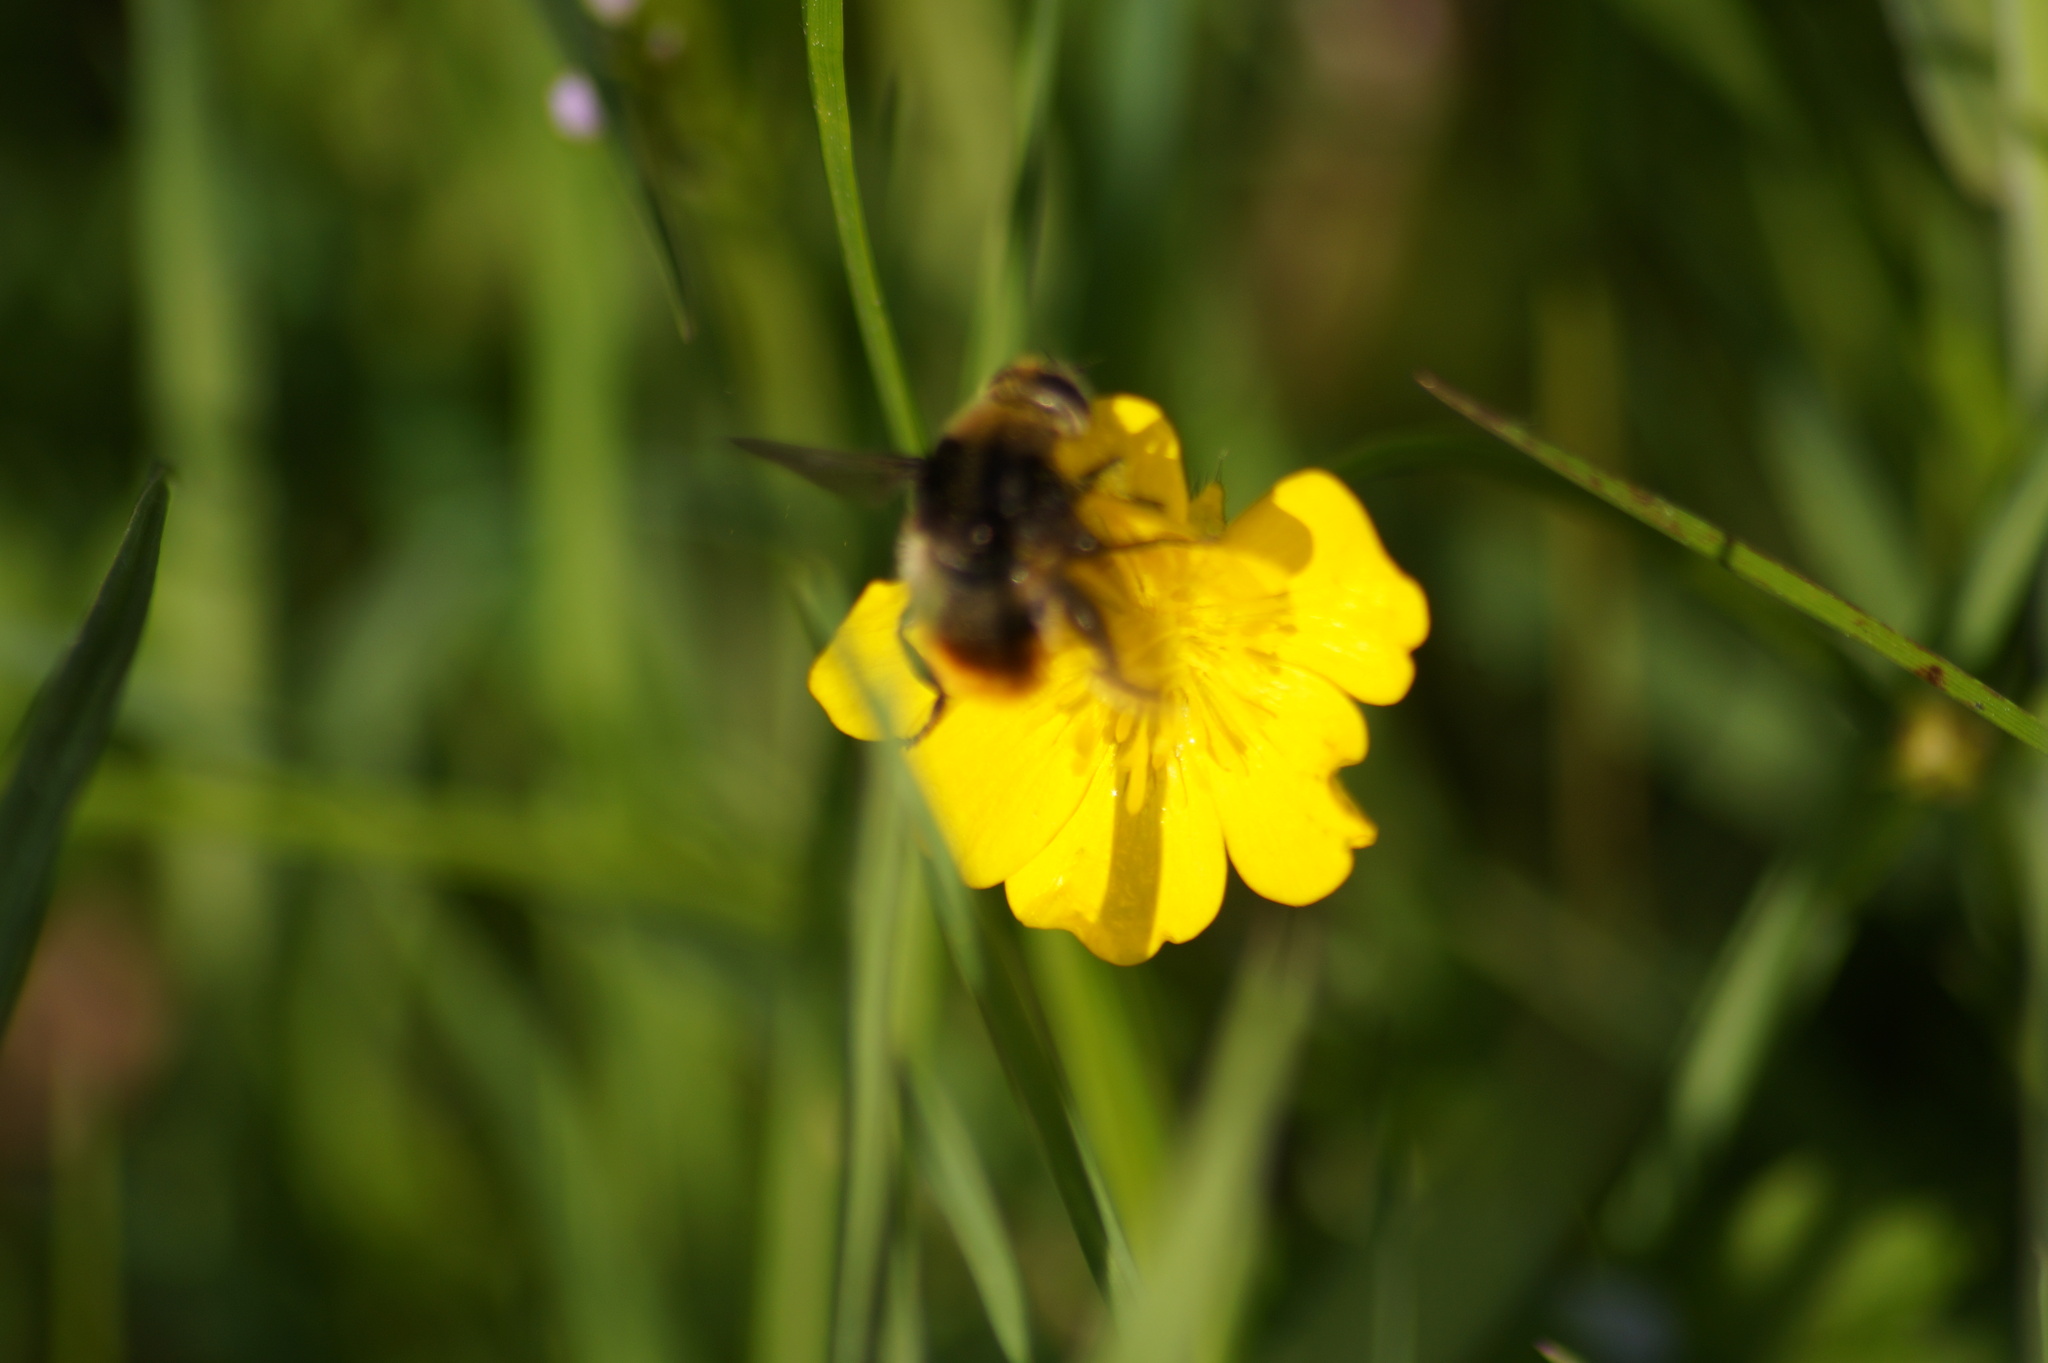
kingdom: Animalia
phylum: Arthropoda
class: Insecta
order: Diptera
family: Syrphidae
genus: Merodon
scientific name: Merodon equestris
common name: Greater bulb-fly
